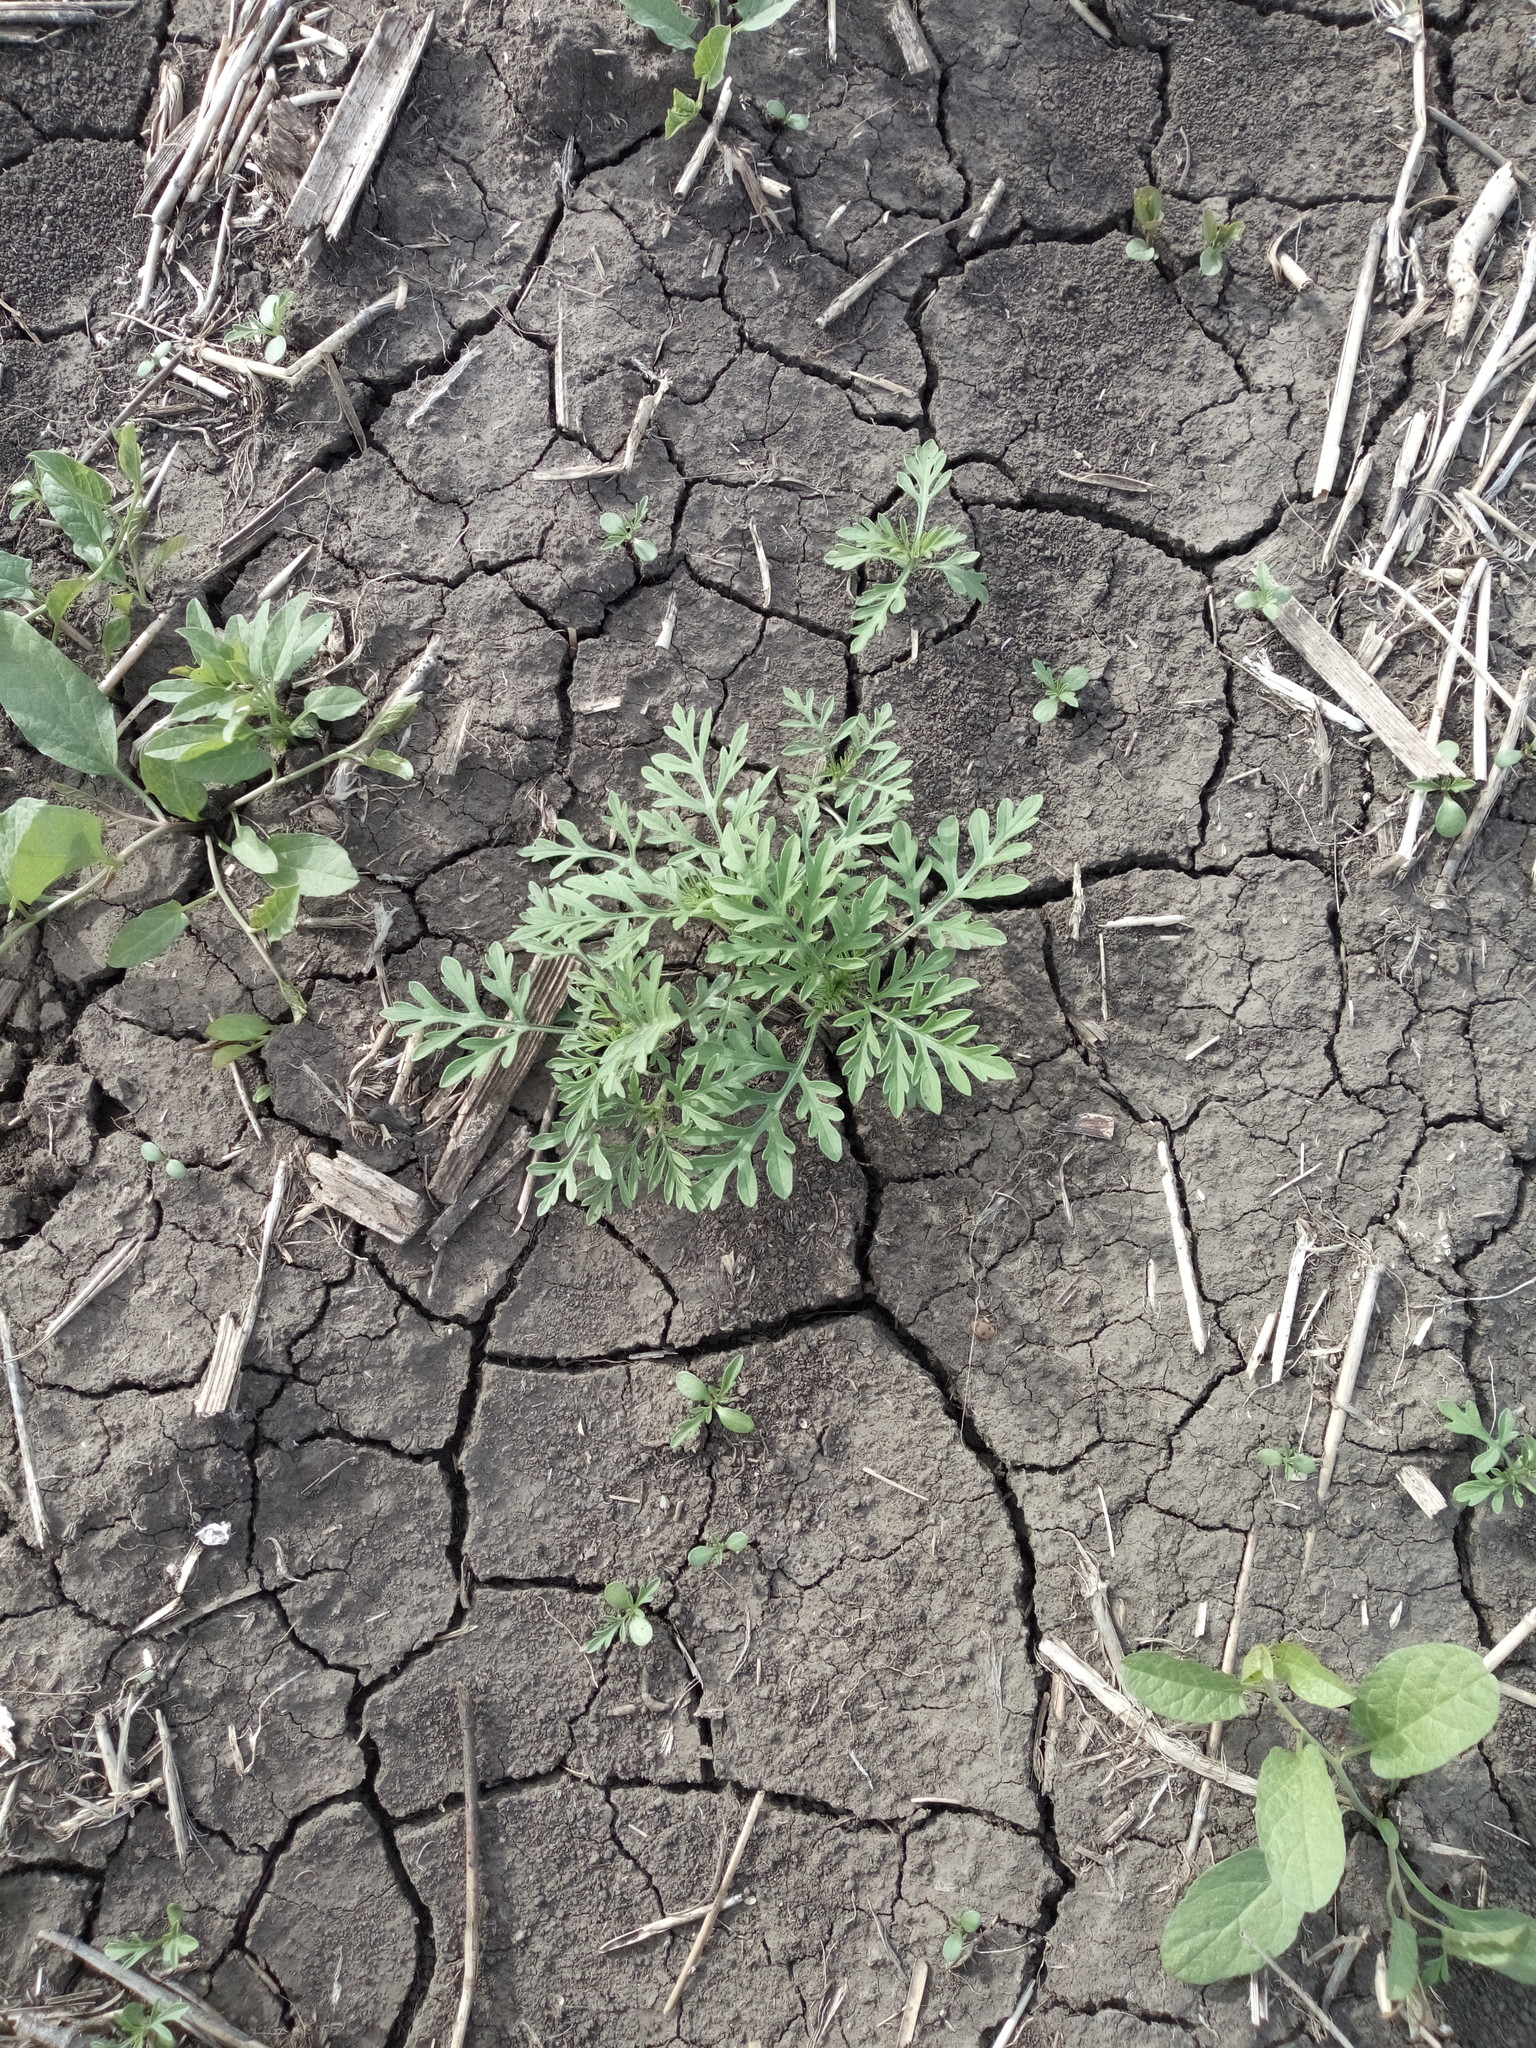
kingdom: Plantae
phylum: Tracheophyta
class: Magnoliopsida
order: Asterales
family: Asteraceae
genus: Ambrosia
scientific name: Ambrosia artemisiifolia
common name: Annual ragweed
